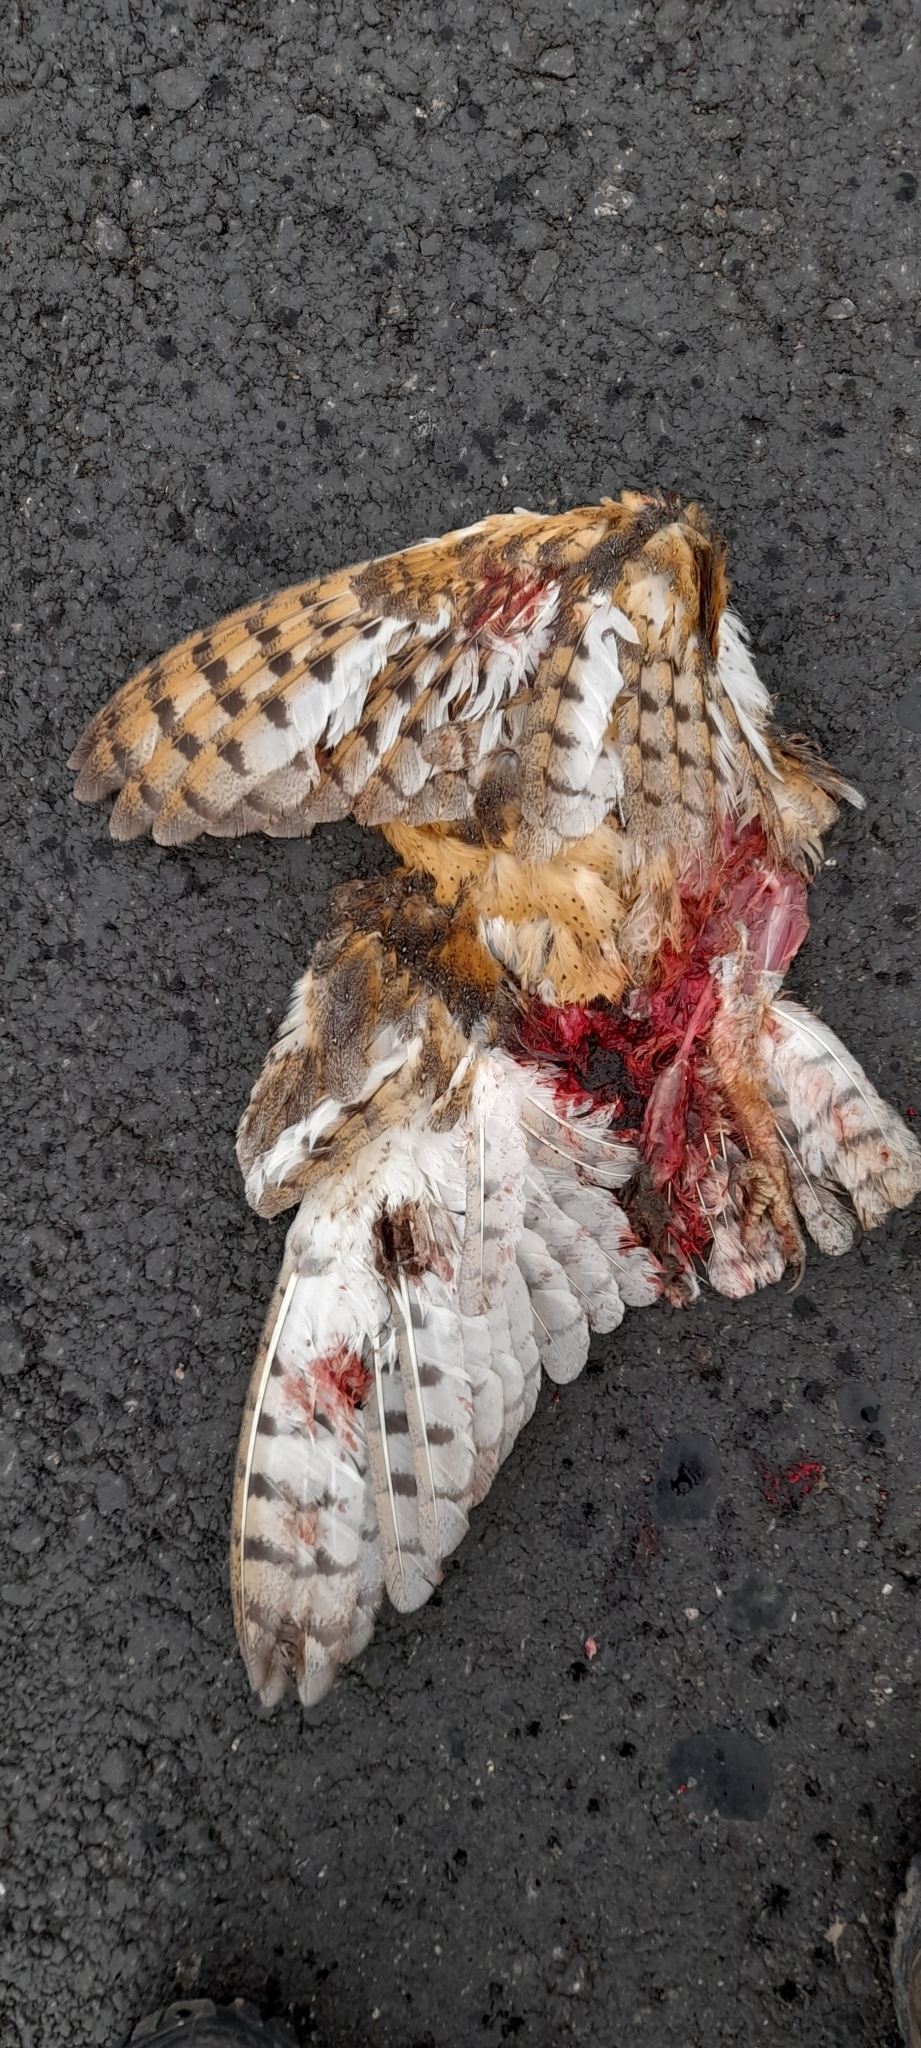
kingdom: Animalia
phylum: Chordata
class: Aves
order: Strigiformes
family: Tytonidae
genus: Tyto
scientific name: Tyto alba
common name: Barn owl
